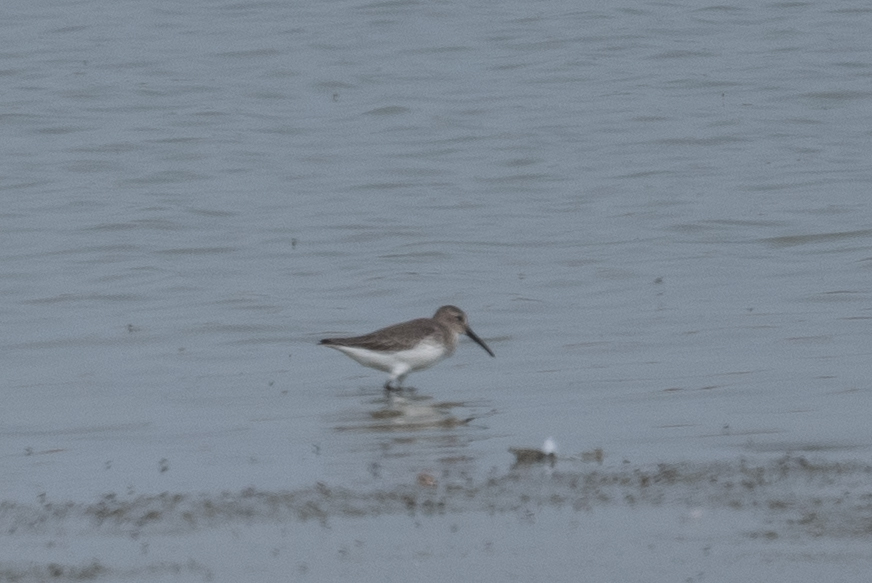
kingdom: Animalia
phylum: Chordata
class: Aves
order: Charadriiformes
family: Scolopacidae
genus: Calidris
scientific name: Calidris alpina
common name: Dunlin
